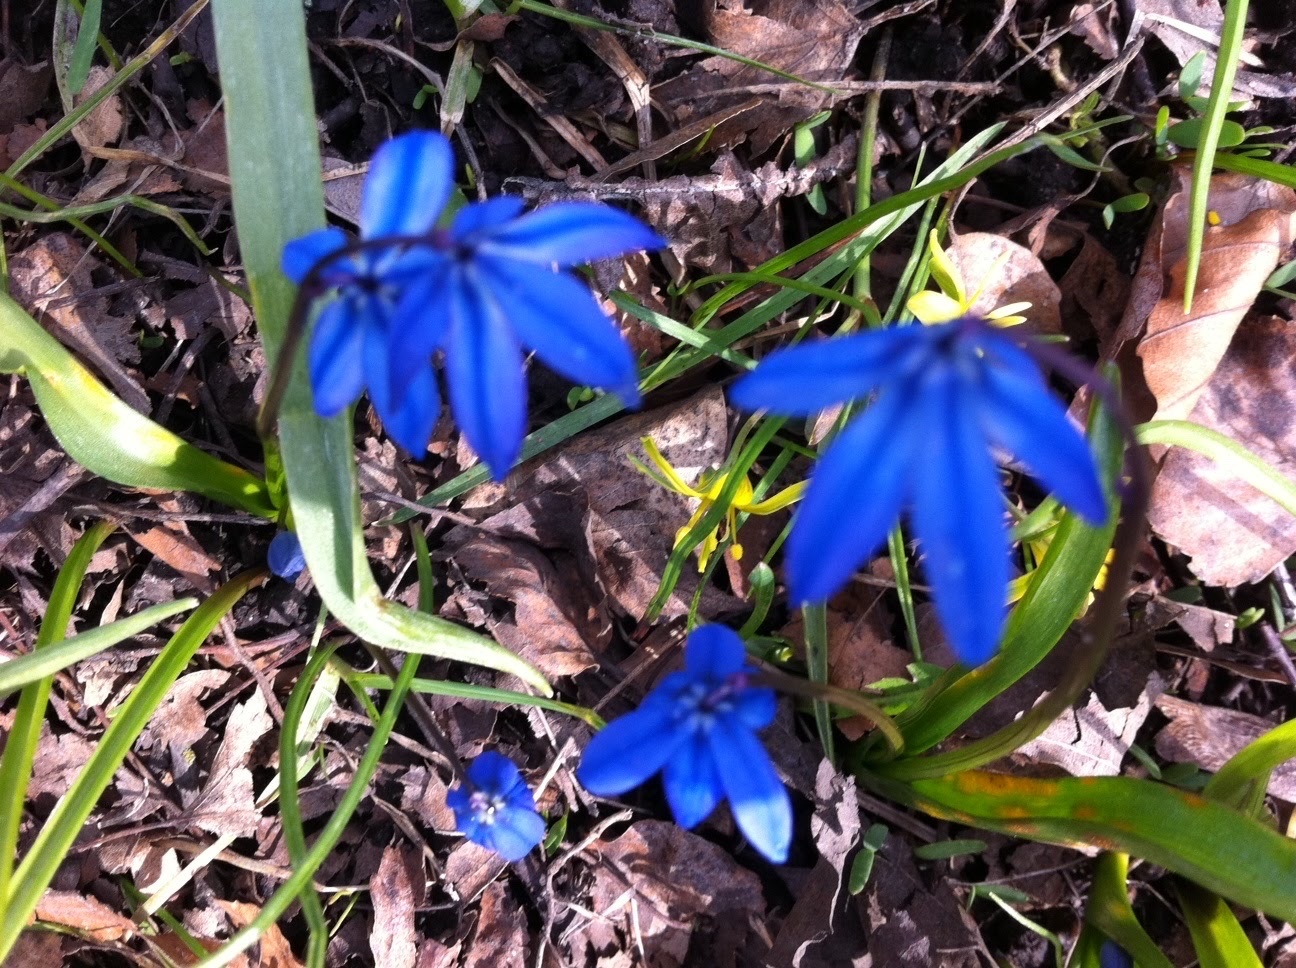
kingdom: Plantae
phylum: Tracheophyta
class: Liliopsida
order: Asparagales
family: Asparagaceae
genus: Scilla
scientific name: Scilla siberica
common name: Siberian squill
